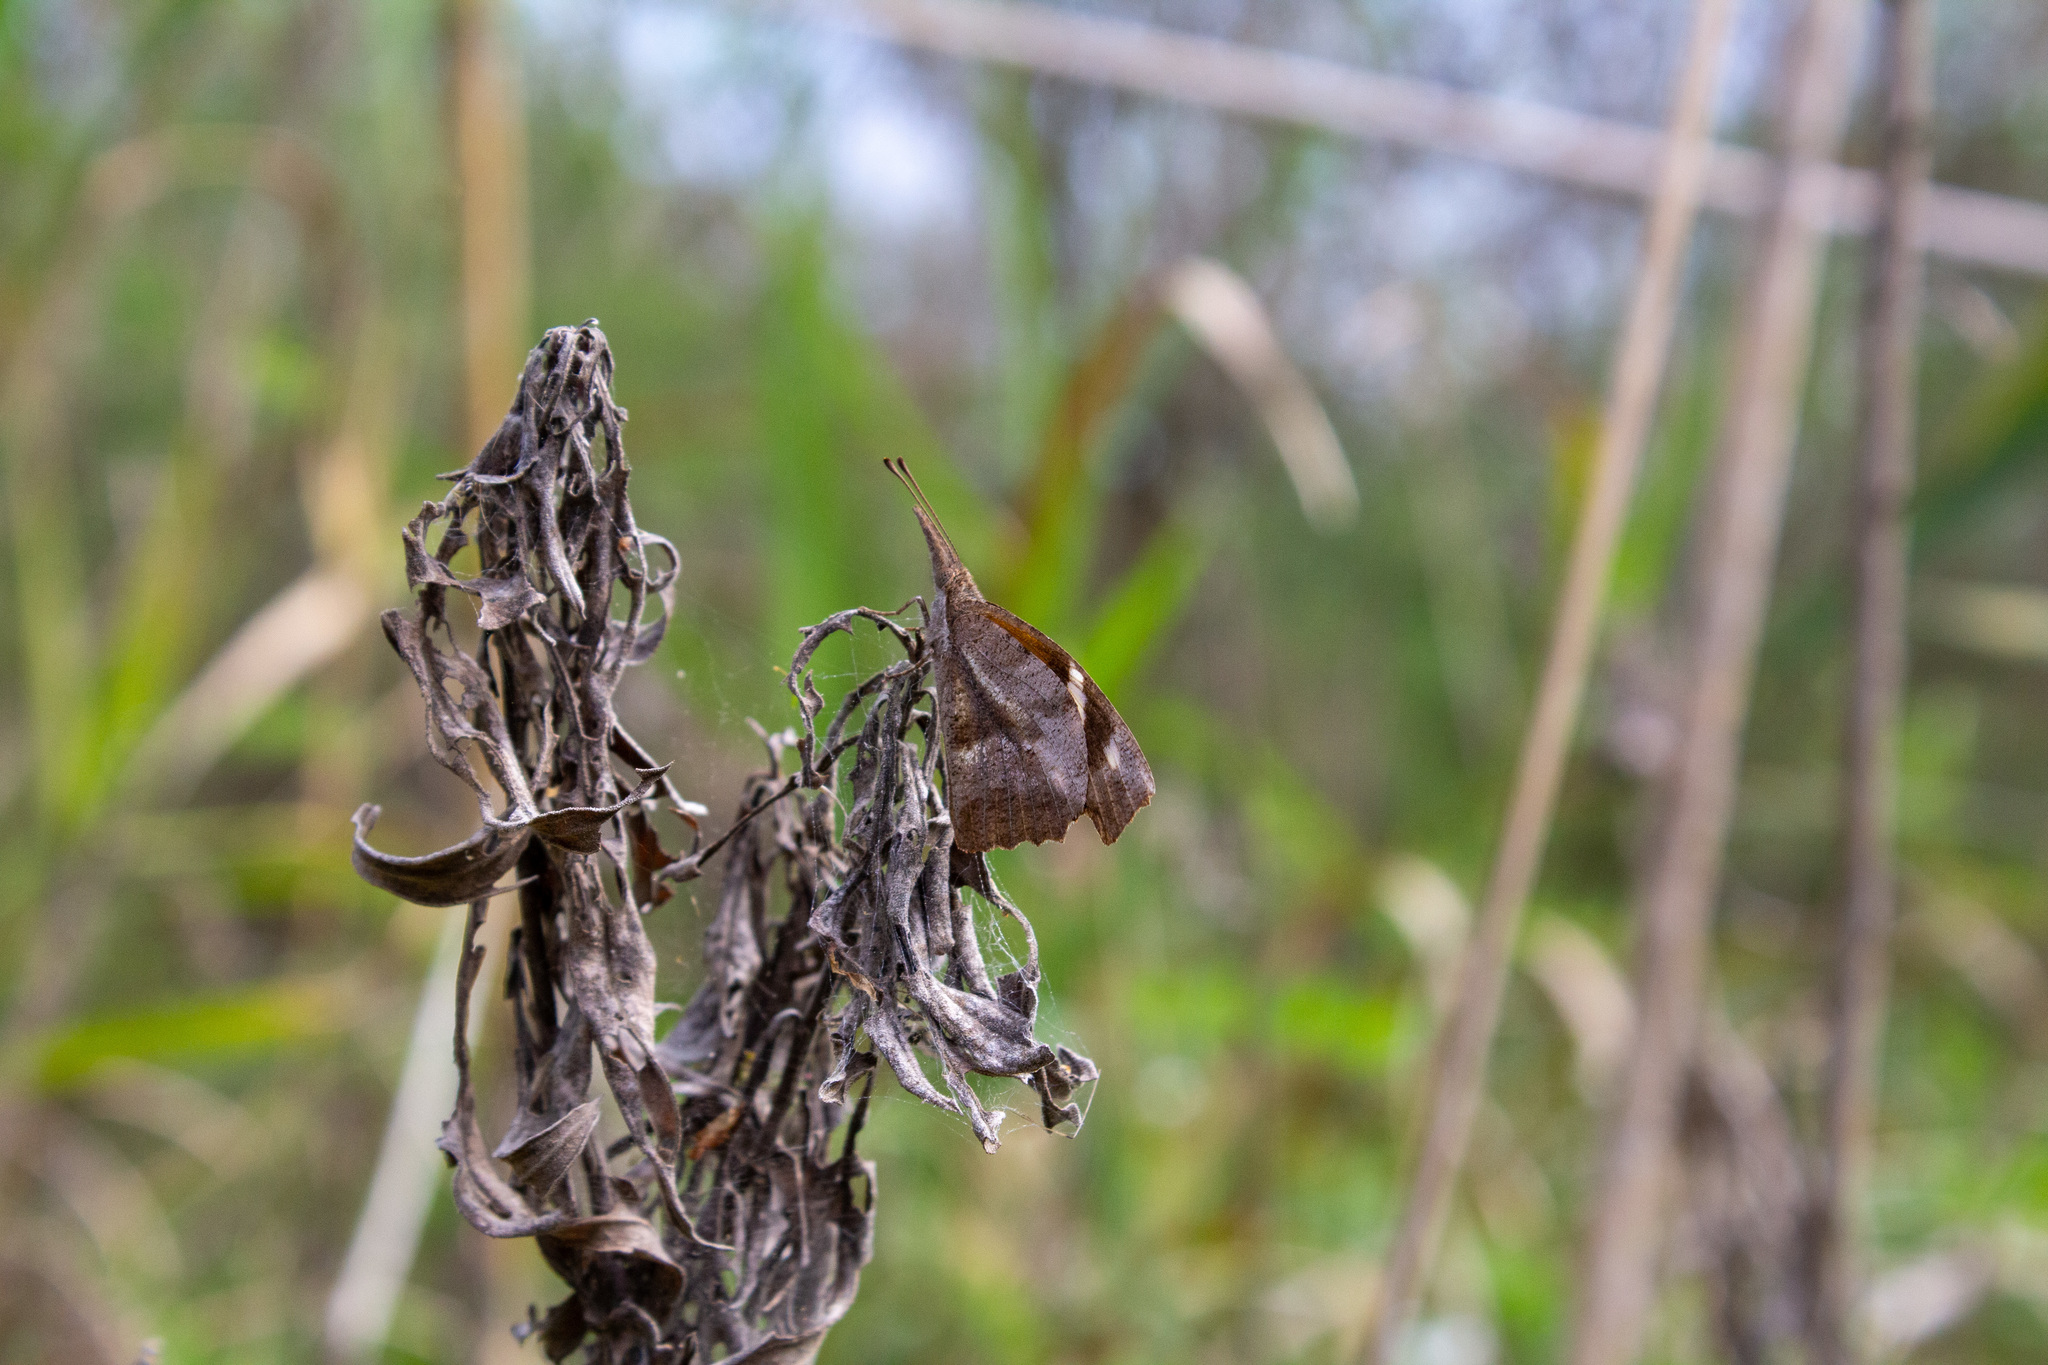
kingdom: Animalia
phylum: Arthropoda
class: Insecta
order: Lepidoptera
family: Nymphalidae
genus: Libytheana
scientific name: Libytheana carinenta
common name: American snout
